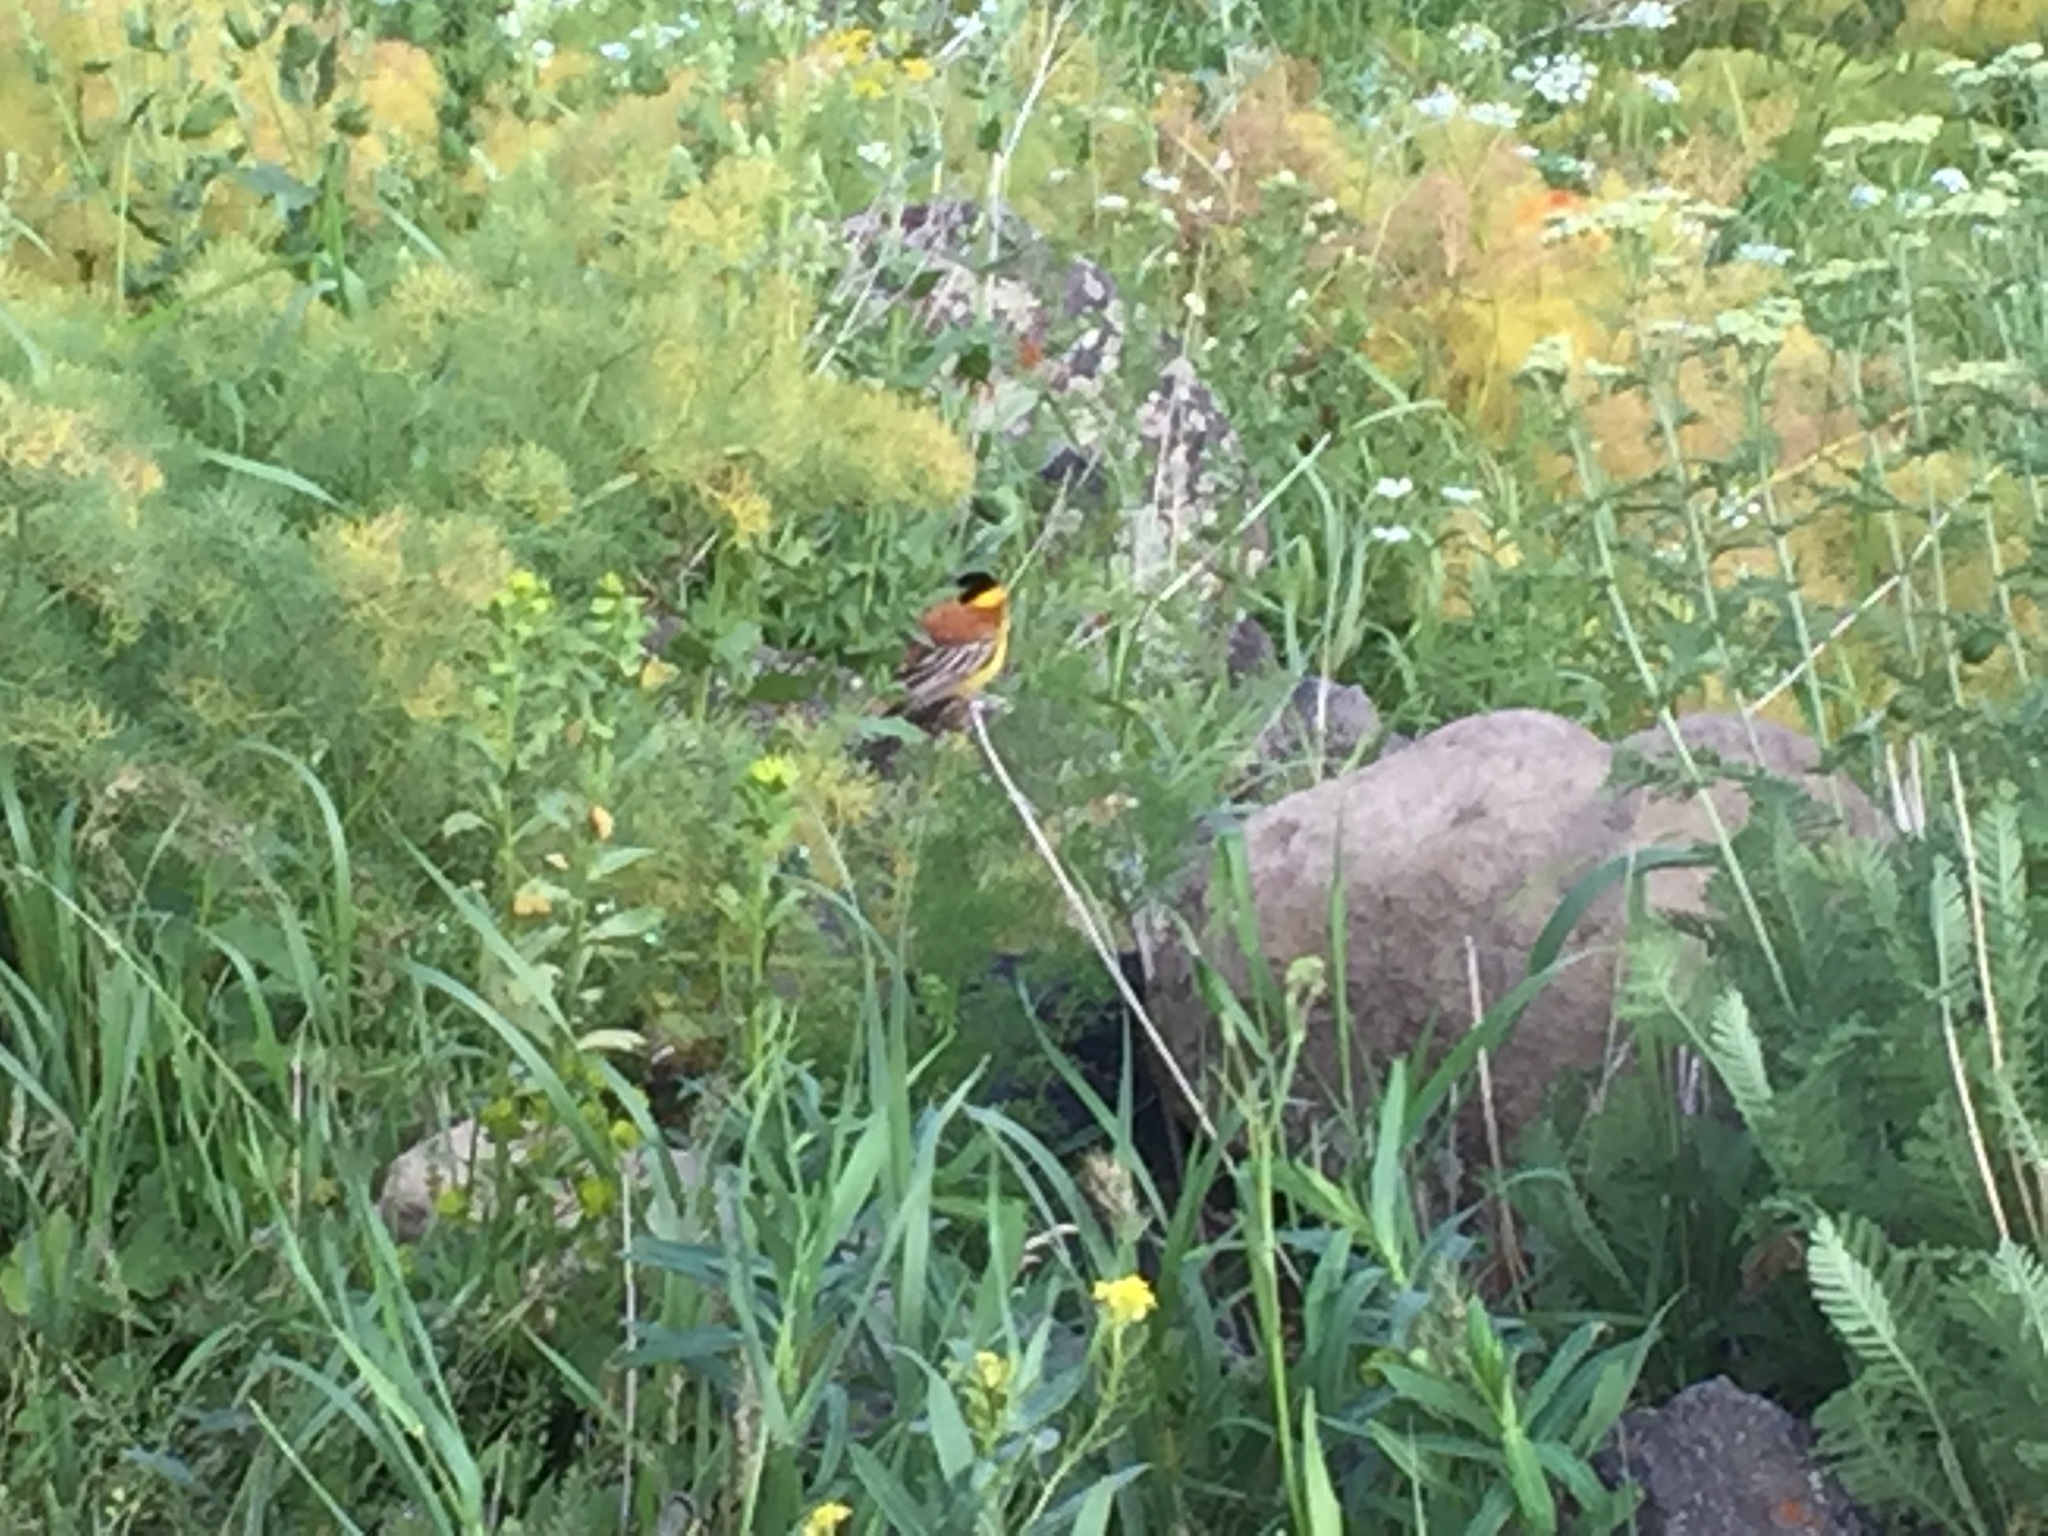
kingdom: Animalia
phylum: Chordata
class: Aves
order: Passeriformes
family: Emberizidae
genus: Emberiza
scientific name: Emberiza melanocephala
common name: Black-headed bunting
